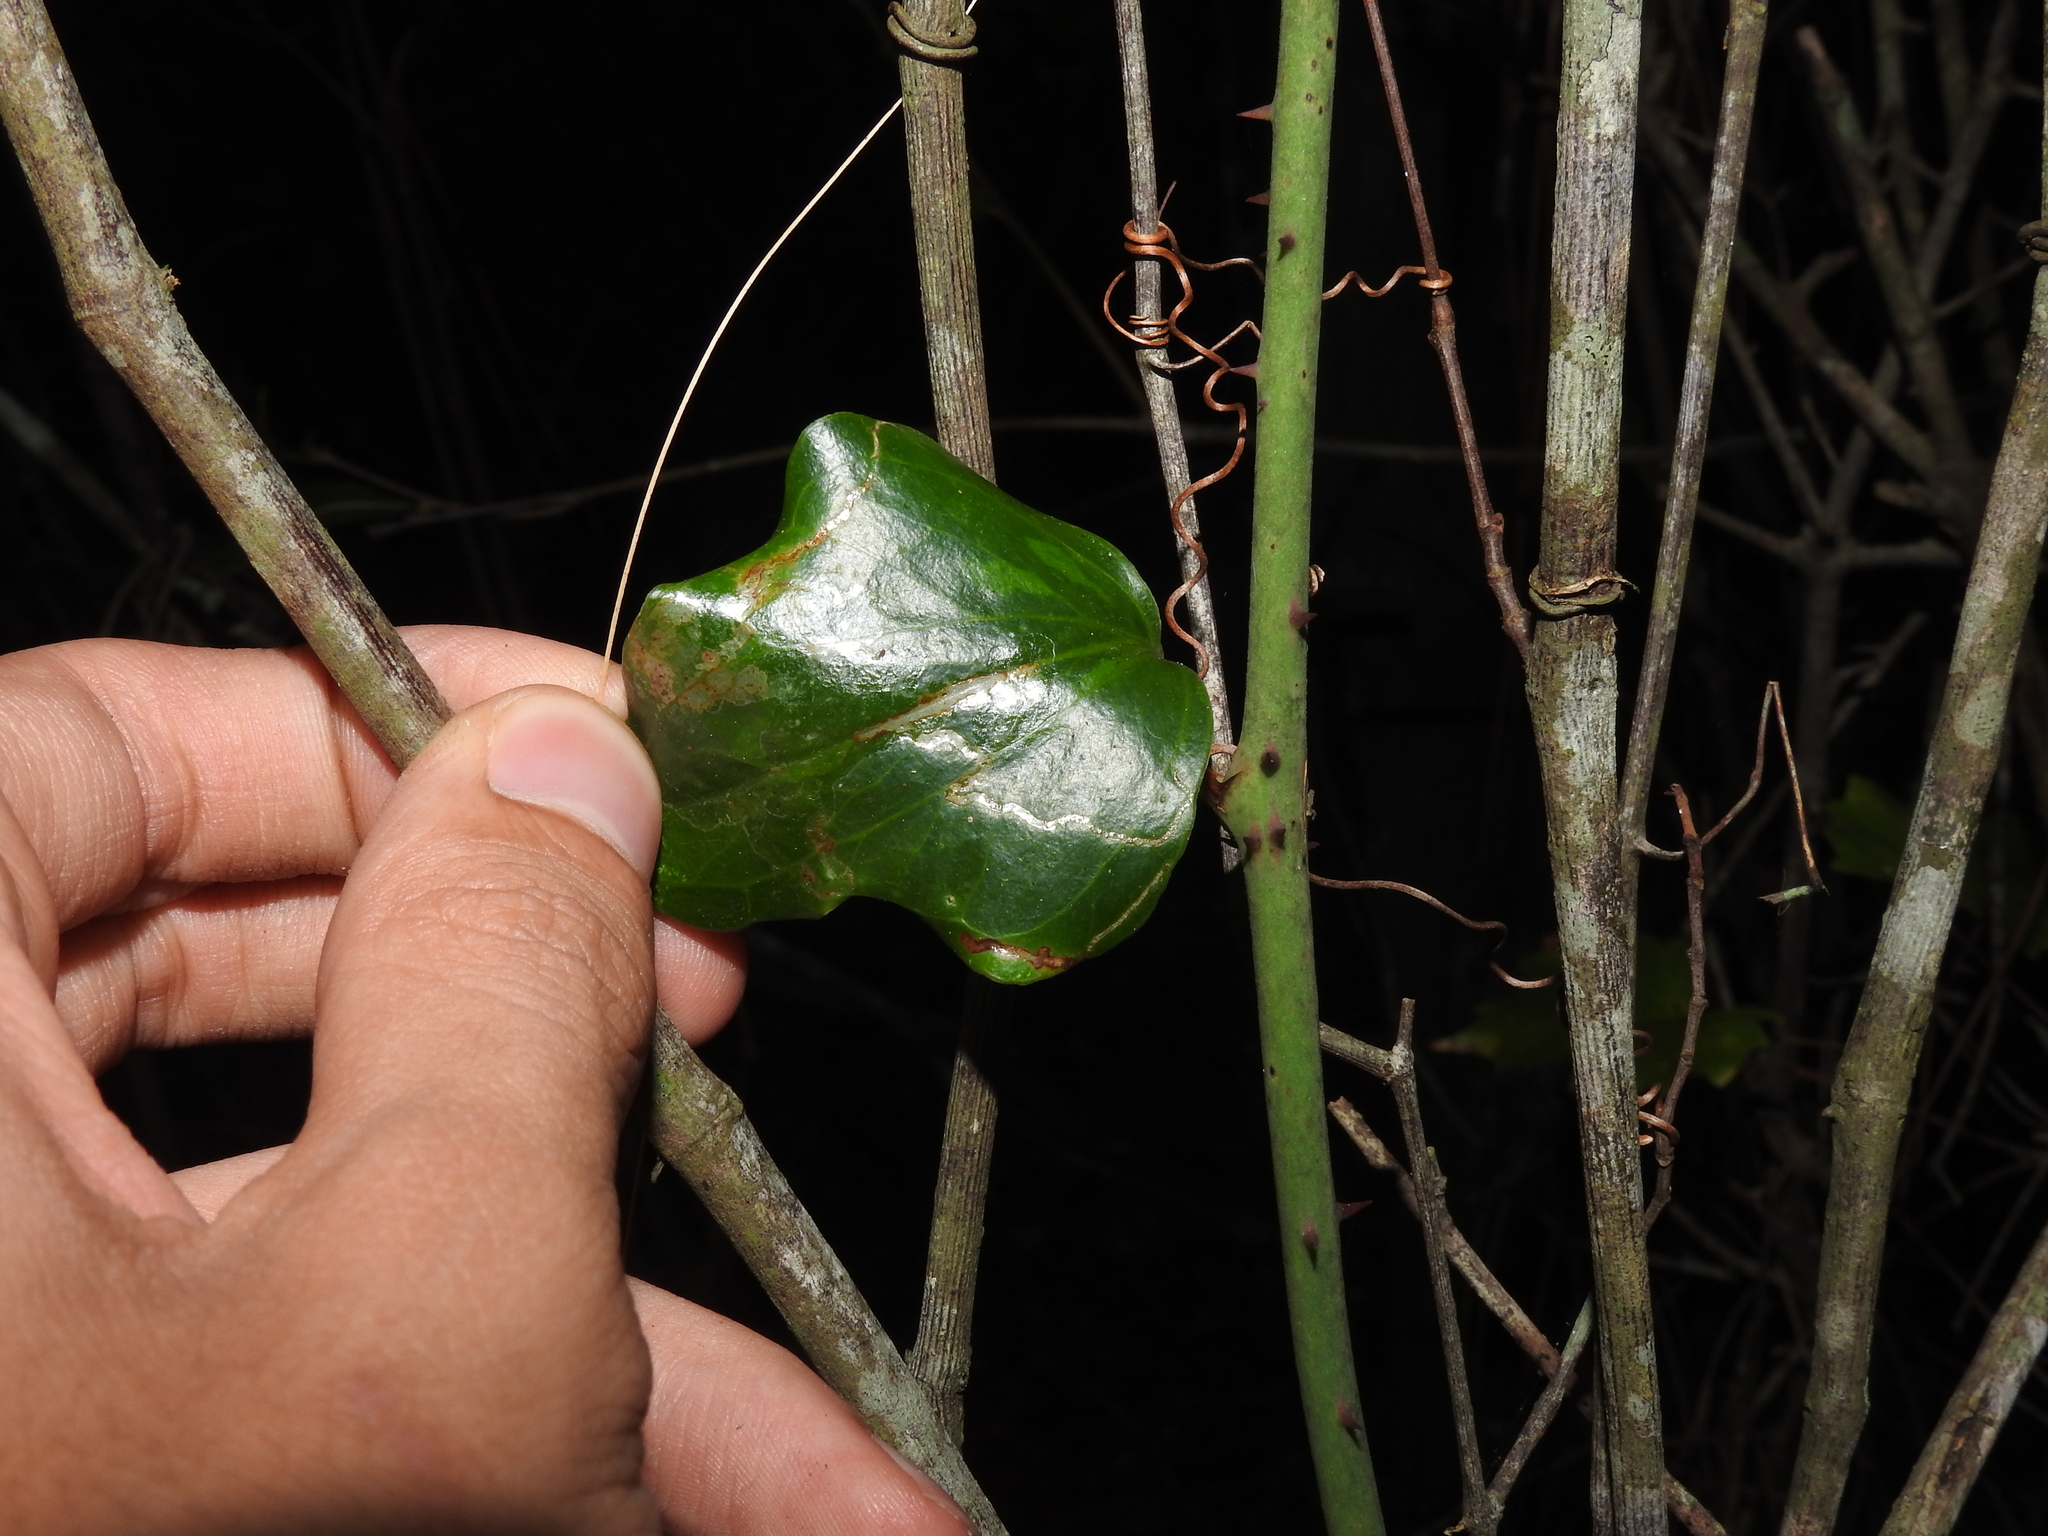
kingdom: Animalia
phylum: Arthropoda
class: Insecta
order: Diptera
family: Agromyzidae
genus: Liriomyza
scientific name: Liriomyza schmidti
